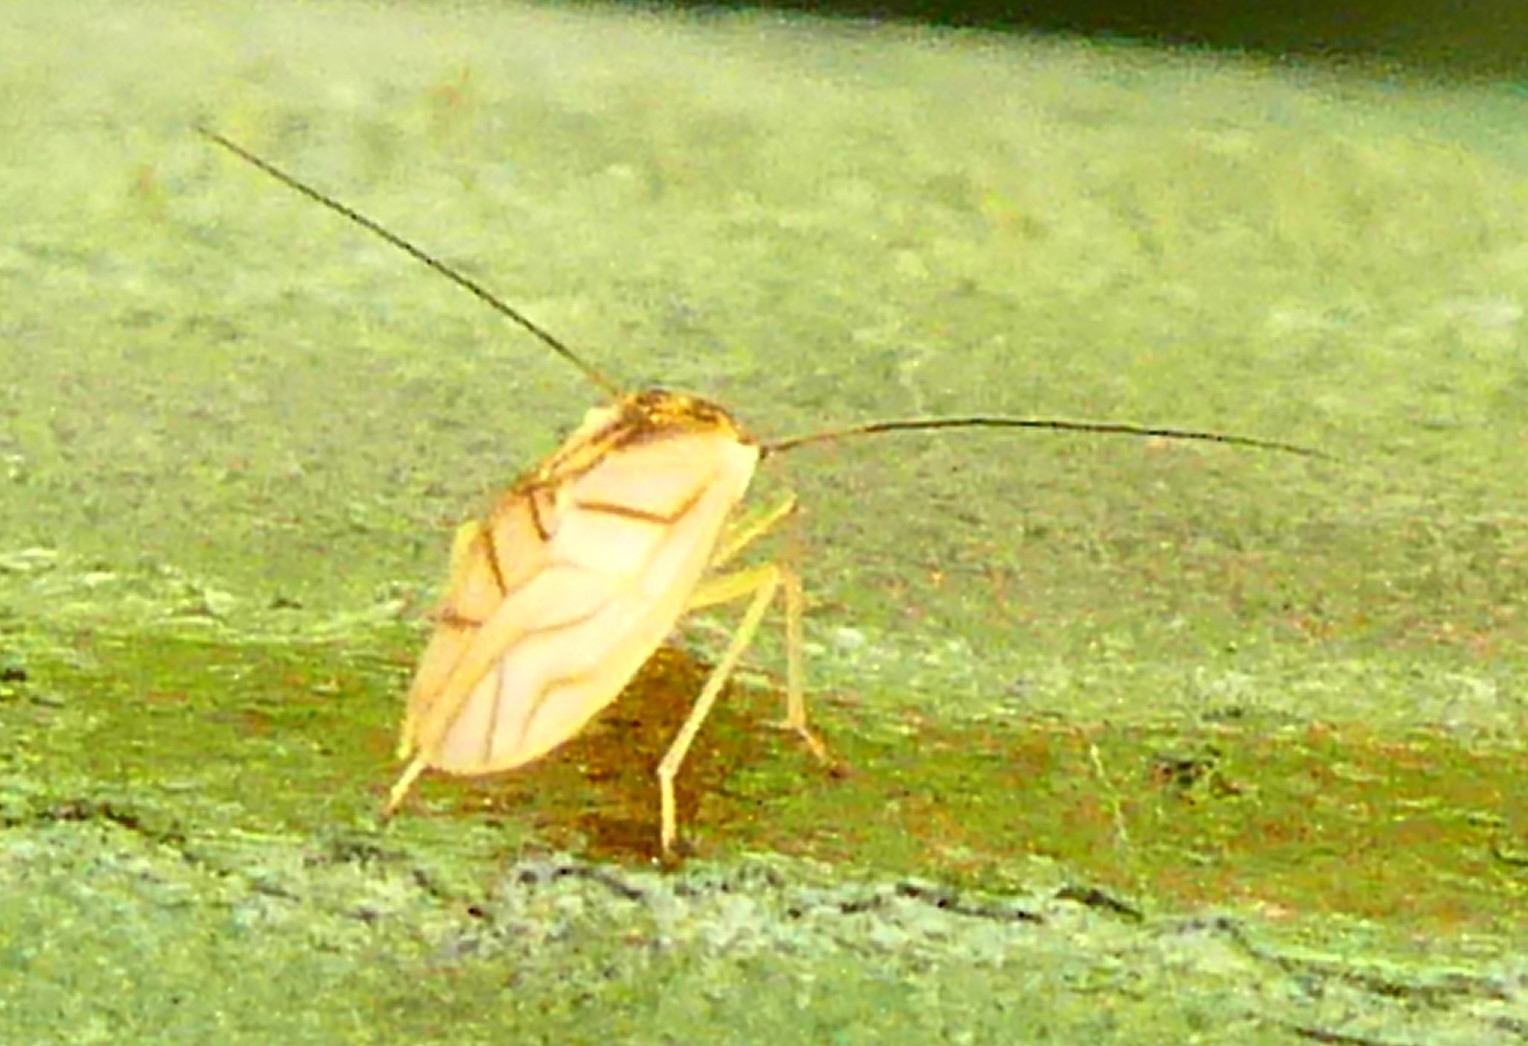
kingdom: Animalia
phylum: Arthropoda
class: Insecta
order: Psocodea
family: Caeciliusidae
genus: Valenzuela
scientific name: Valenzuela flavidus
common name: Yellow barklouse
